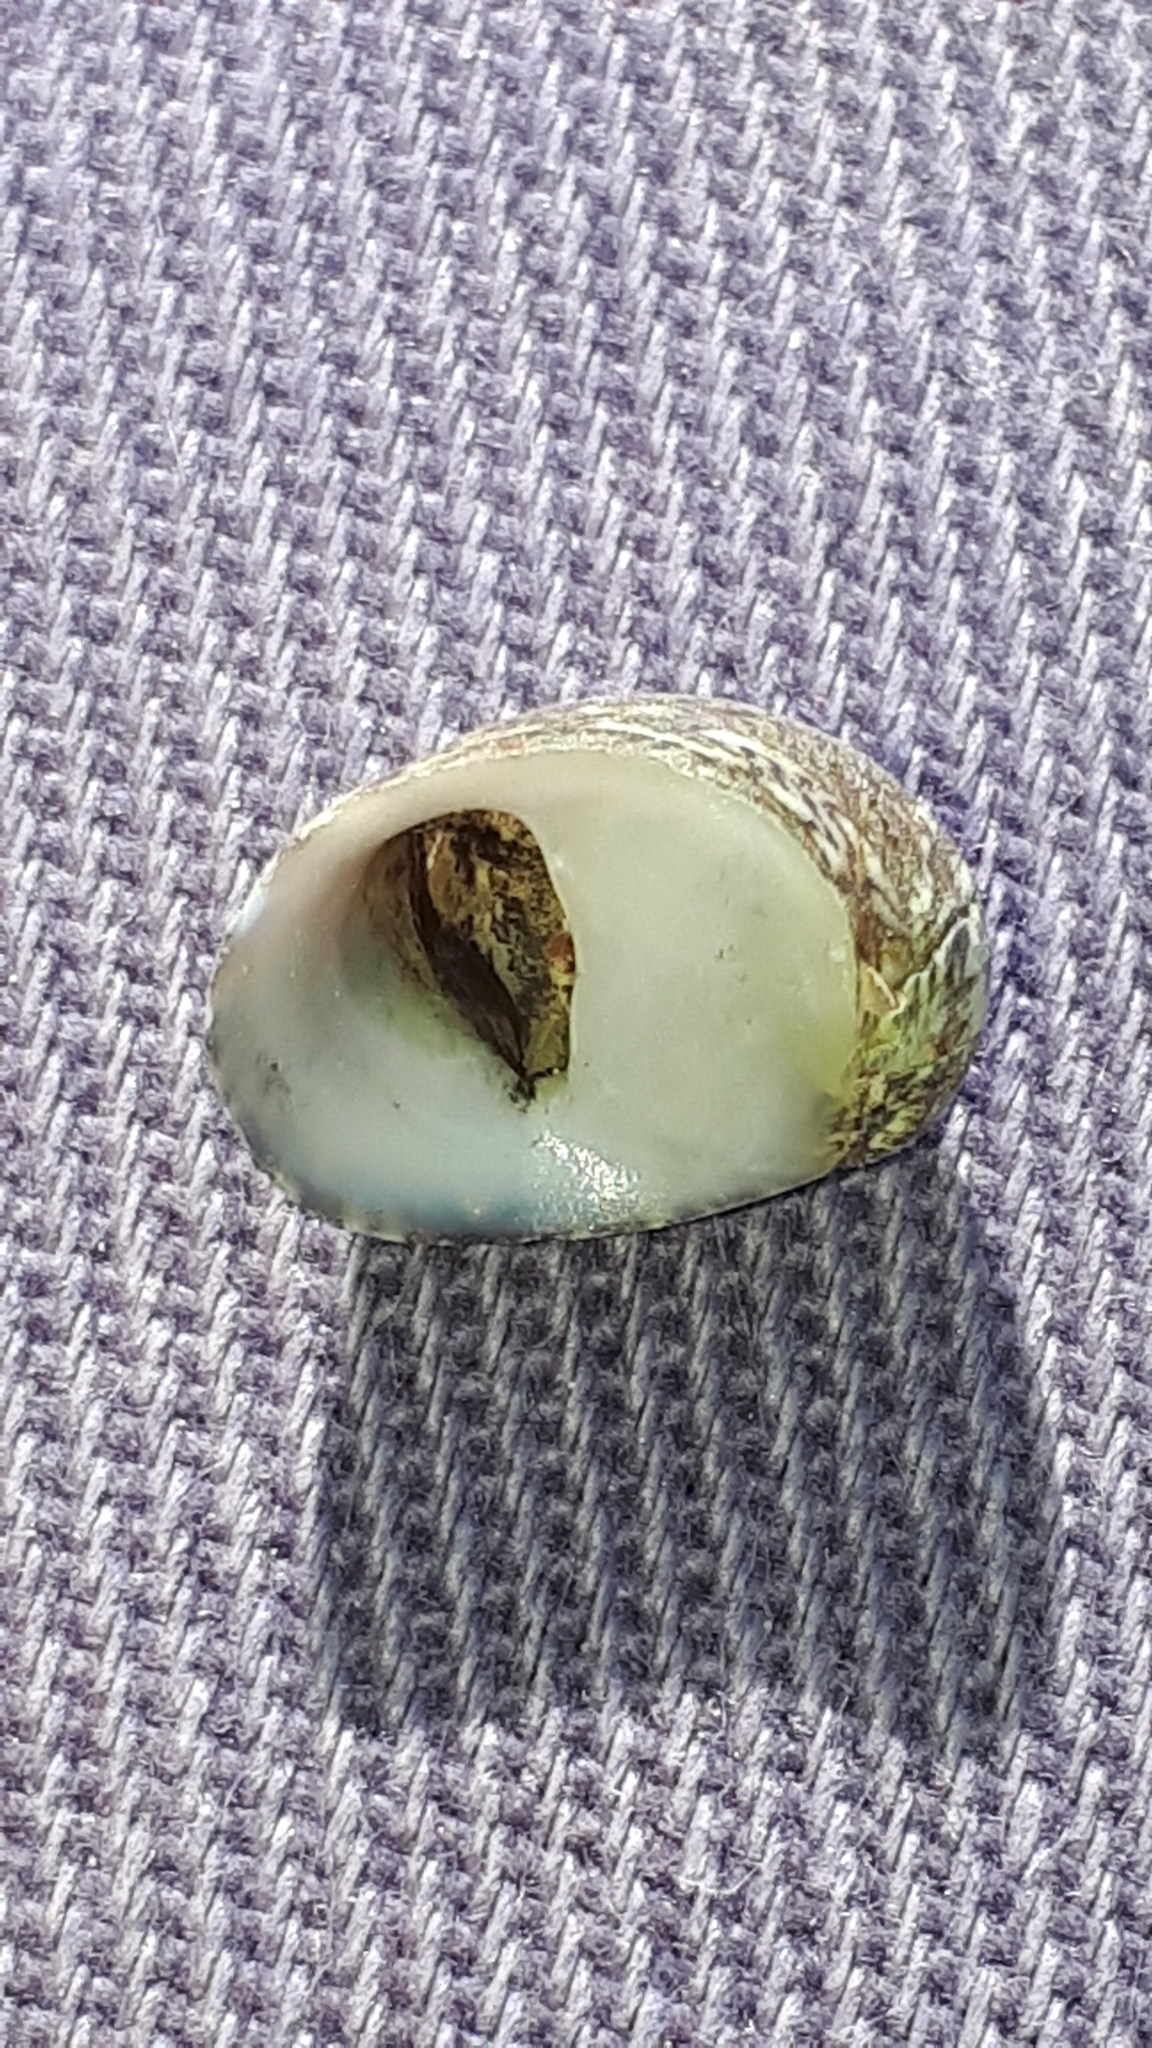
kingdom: Animalia
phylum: Mollusca
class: Gastropoda
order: Cycloneritida
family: Neritidae
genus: Theodoxus
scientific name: Theodoxus fluviatilis
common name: River nerite
